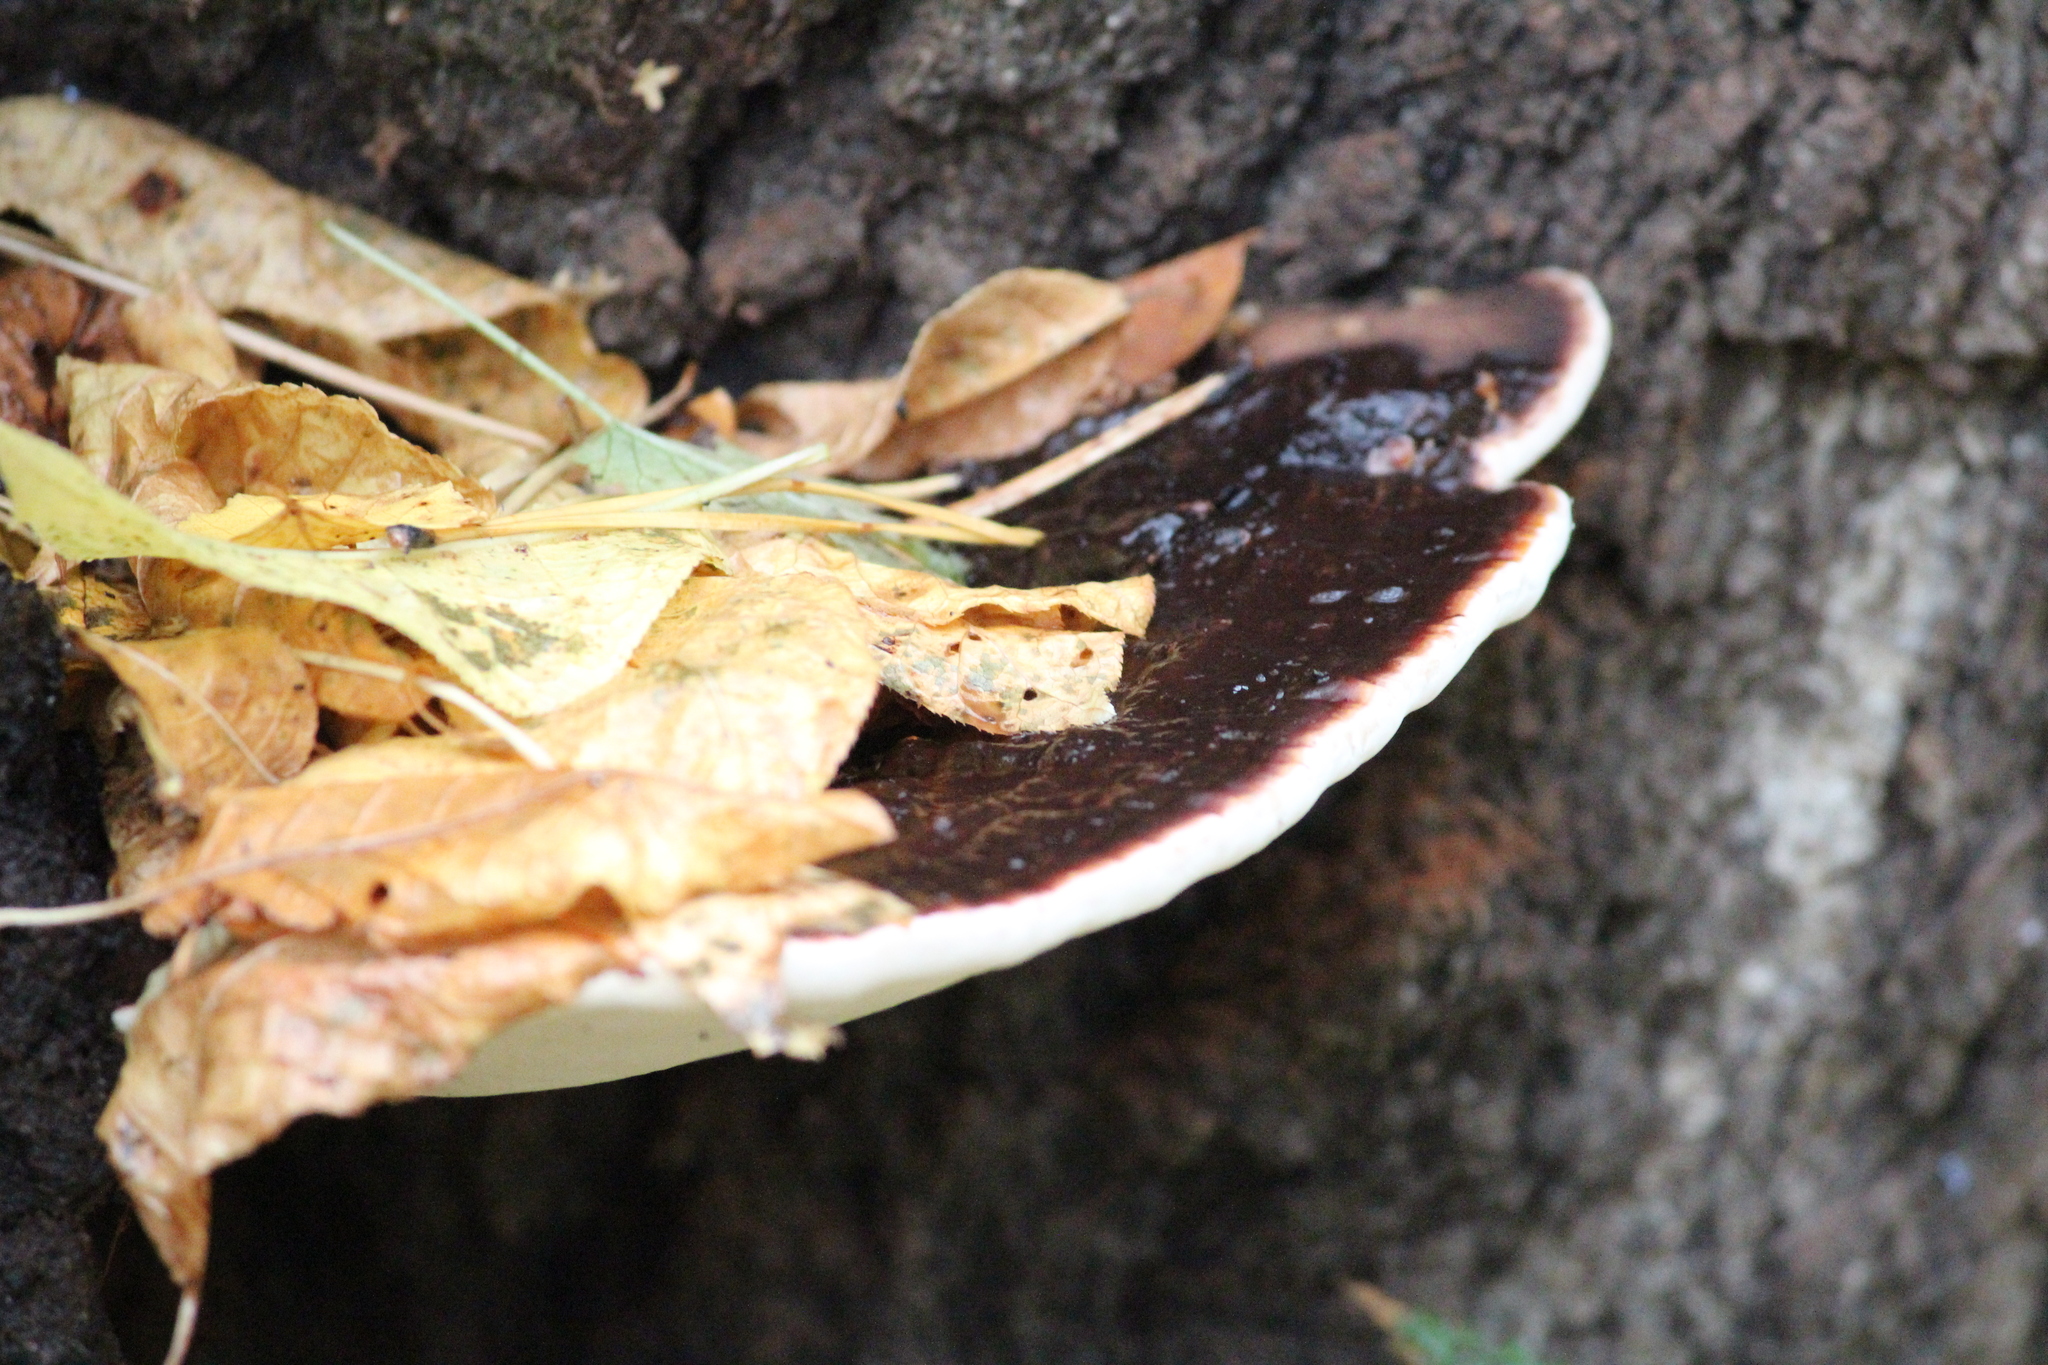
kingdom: Fungi
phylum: Basidiomycota
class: Agaricomycetes
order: Polyporales
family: Polyporaceae
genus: Ganoderma
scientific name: Ganoderma applanatum
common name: Artist's bracket
